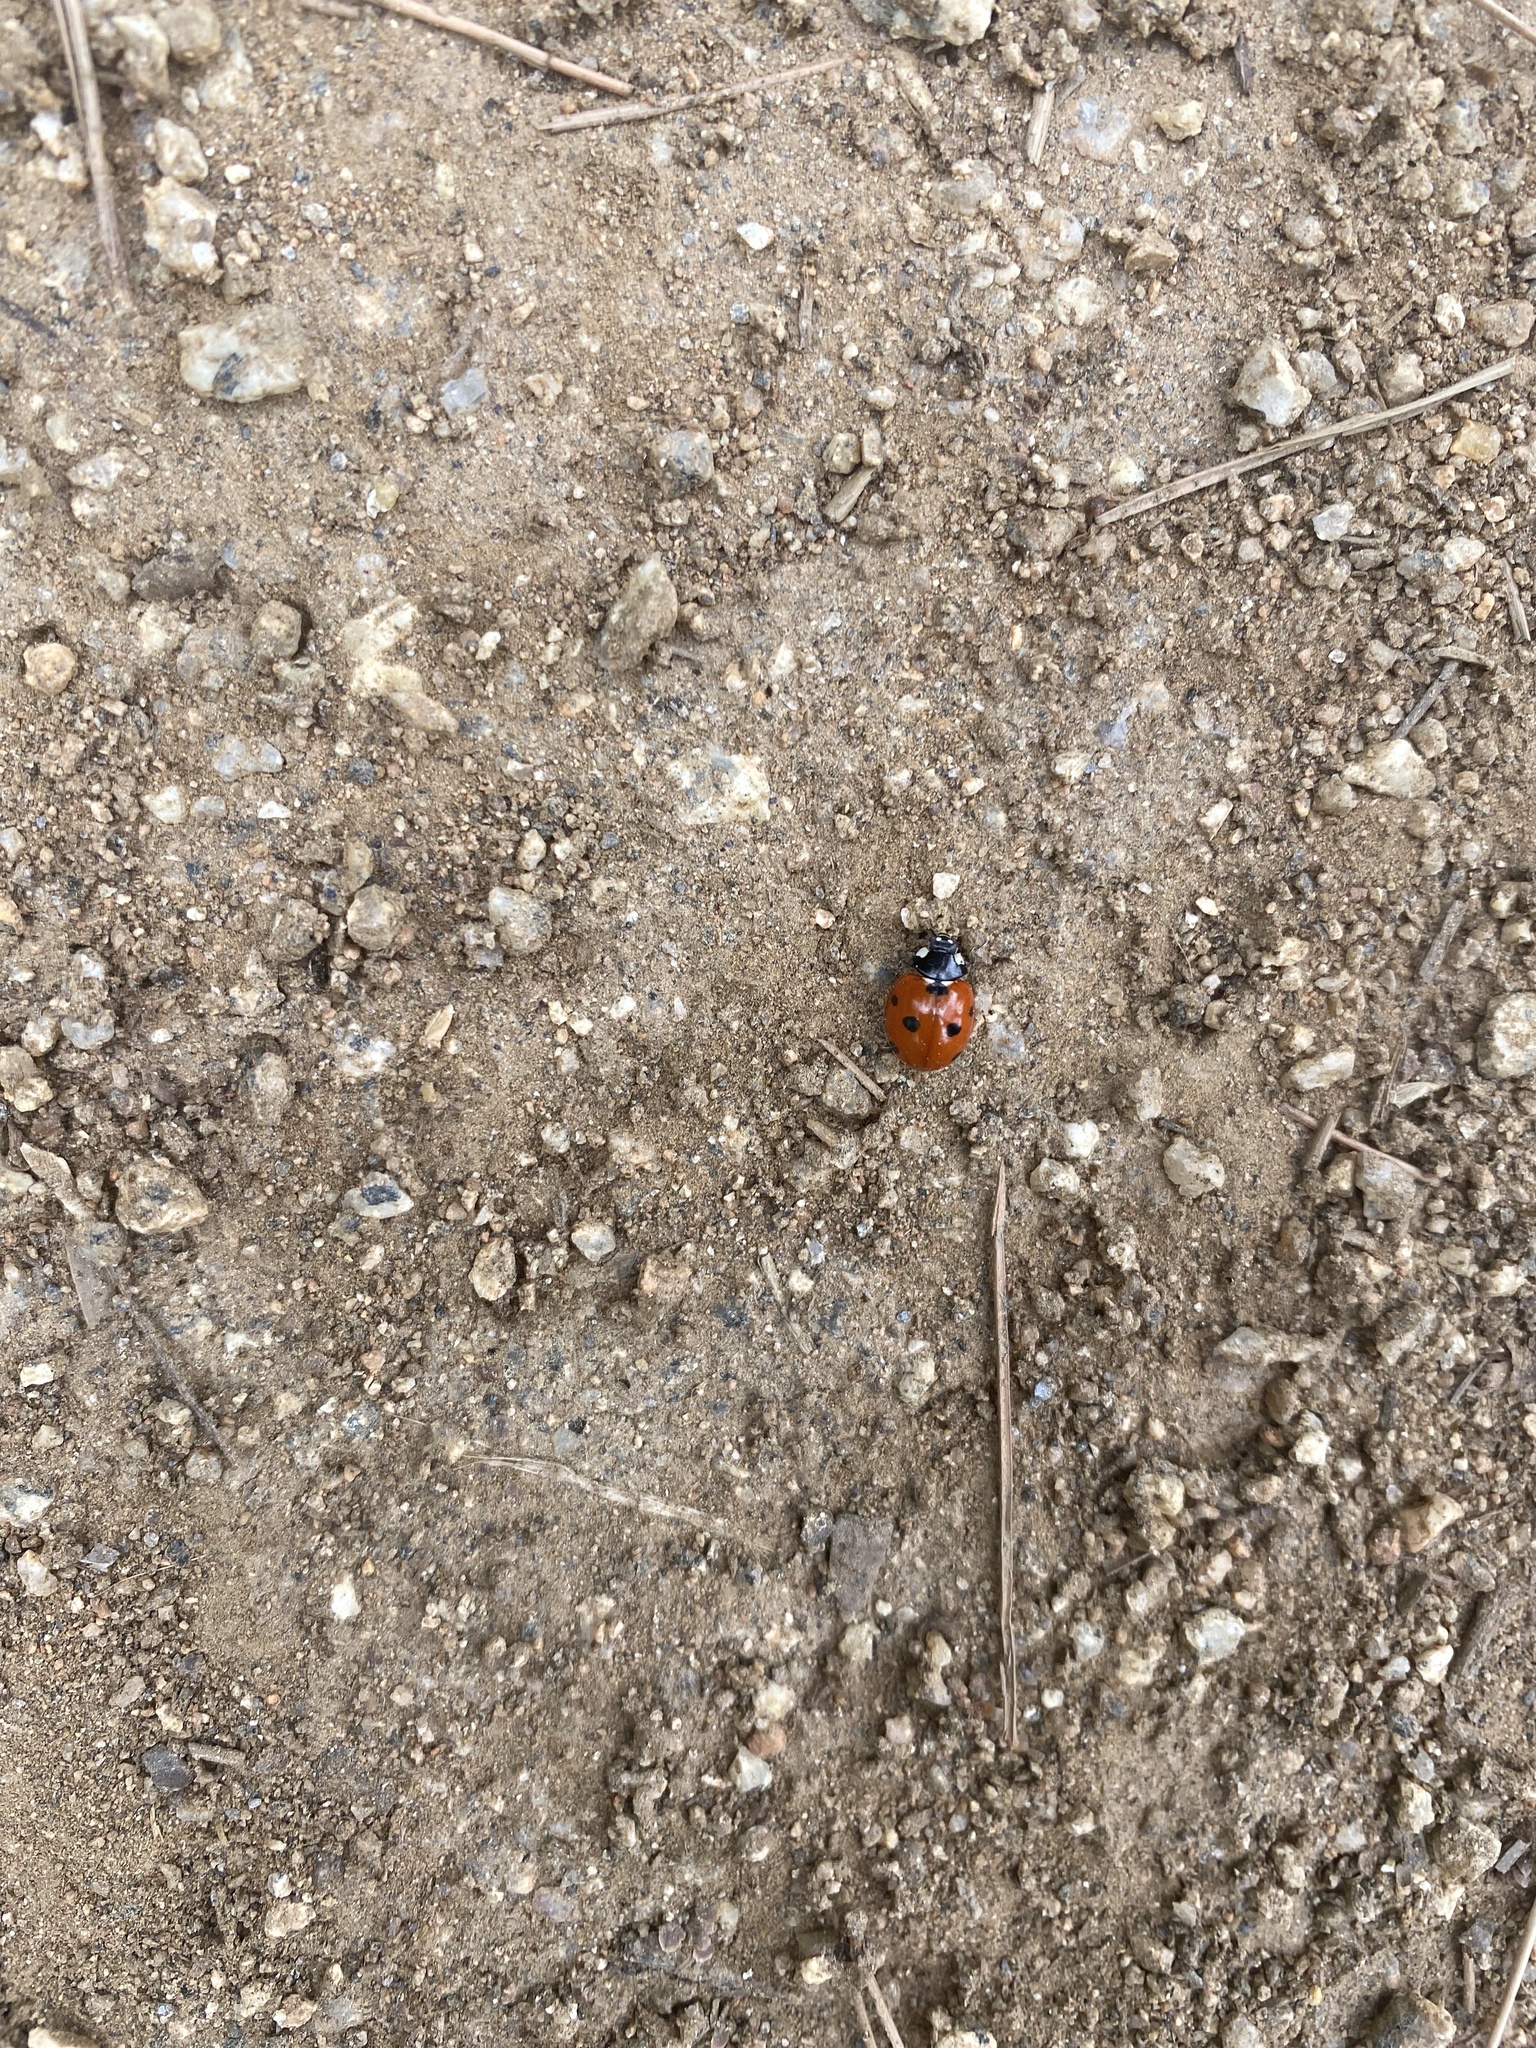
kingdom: Animalia
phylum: Arthropoda
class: Insecta
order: Coleoptera
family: Coccinellidae
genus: Coccinella
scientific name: Coccinella septempunctata
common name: Sevenspotted lady beetle
